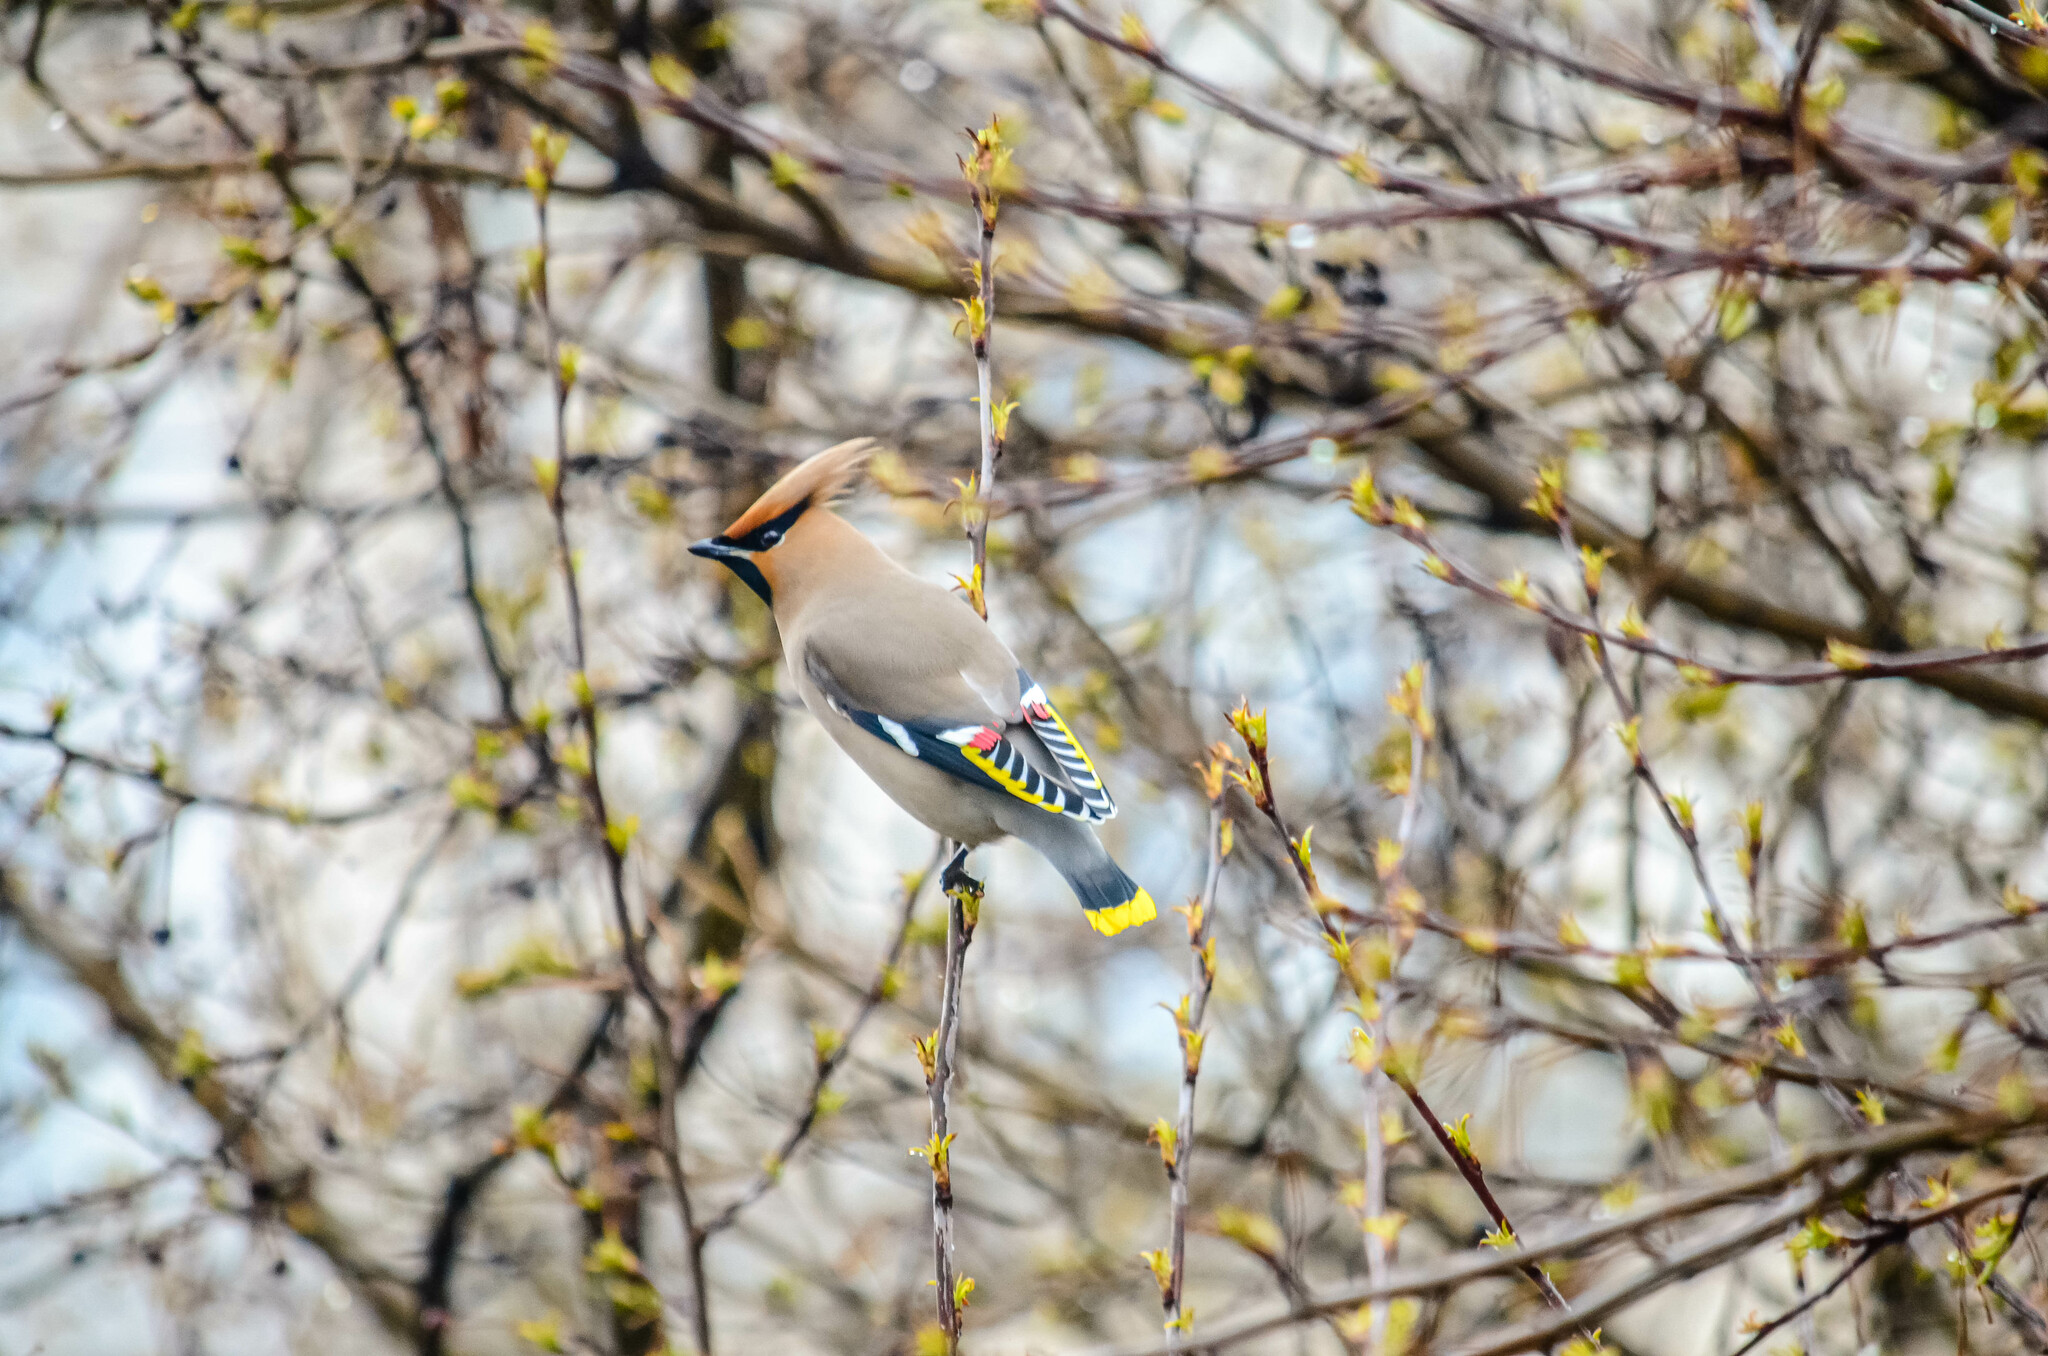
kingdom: Animalia
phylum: Chordata
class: Aves
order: Passeriformes
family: Bombycillidae
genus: Bombycilla
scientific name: Bombycilla garrulus
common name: Bohemian waxwing
